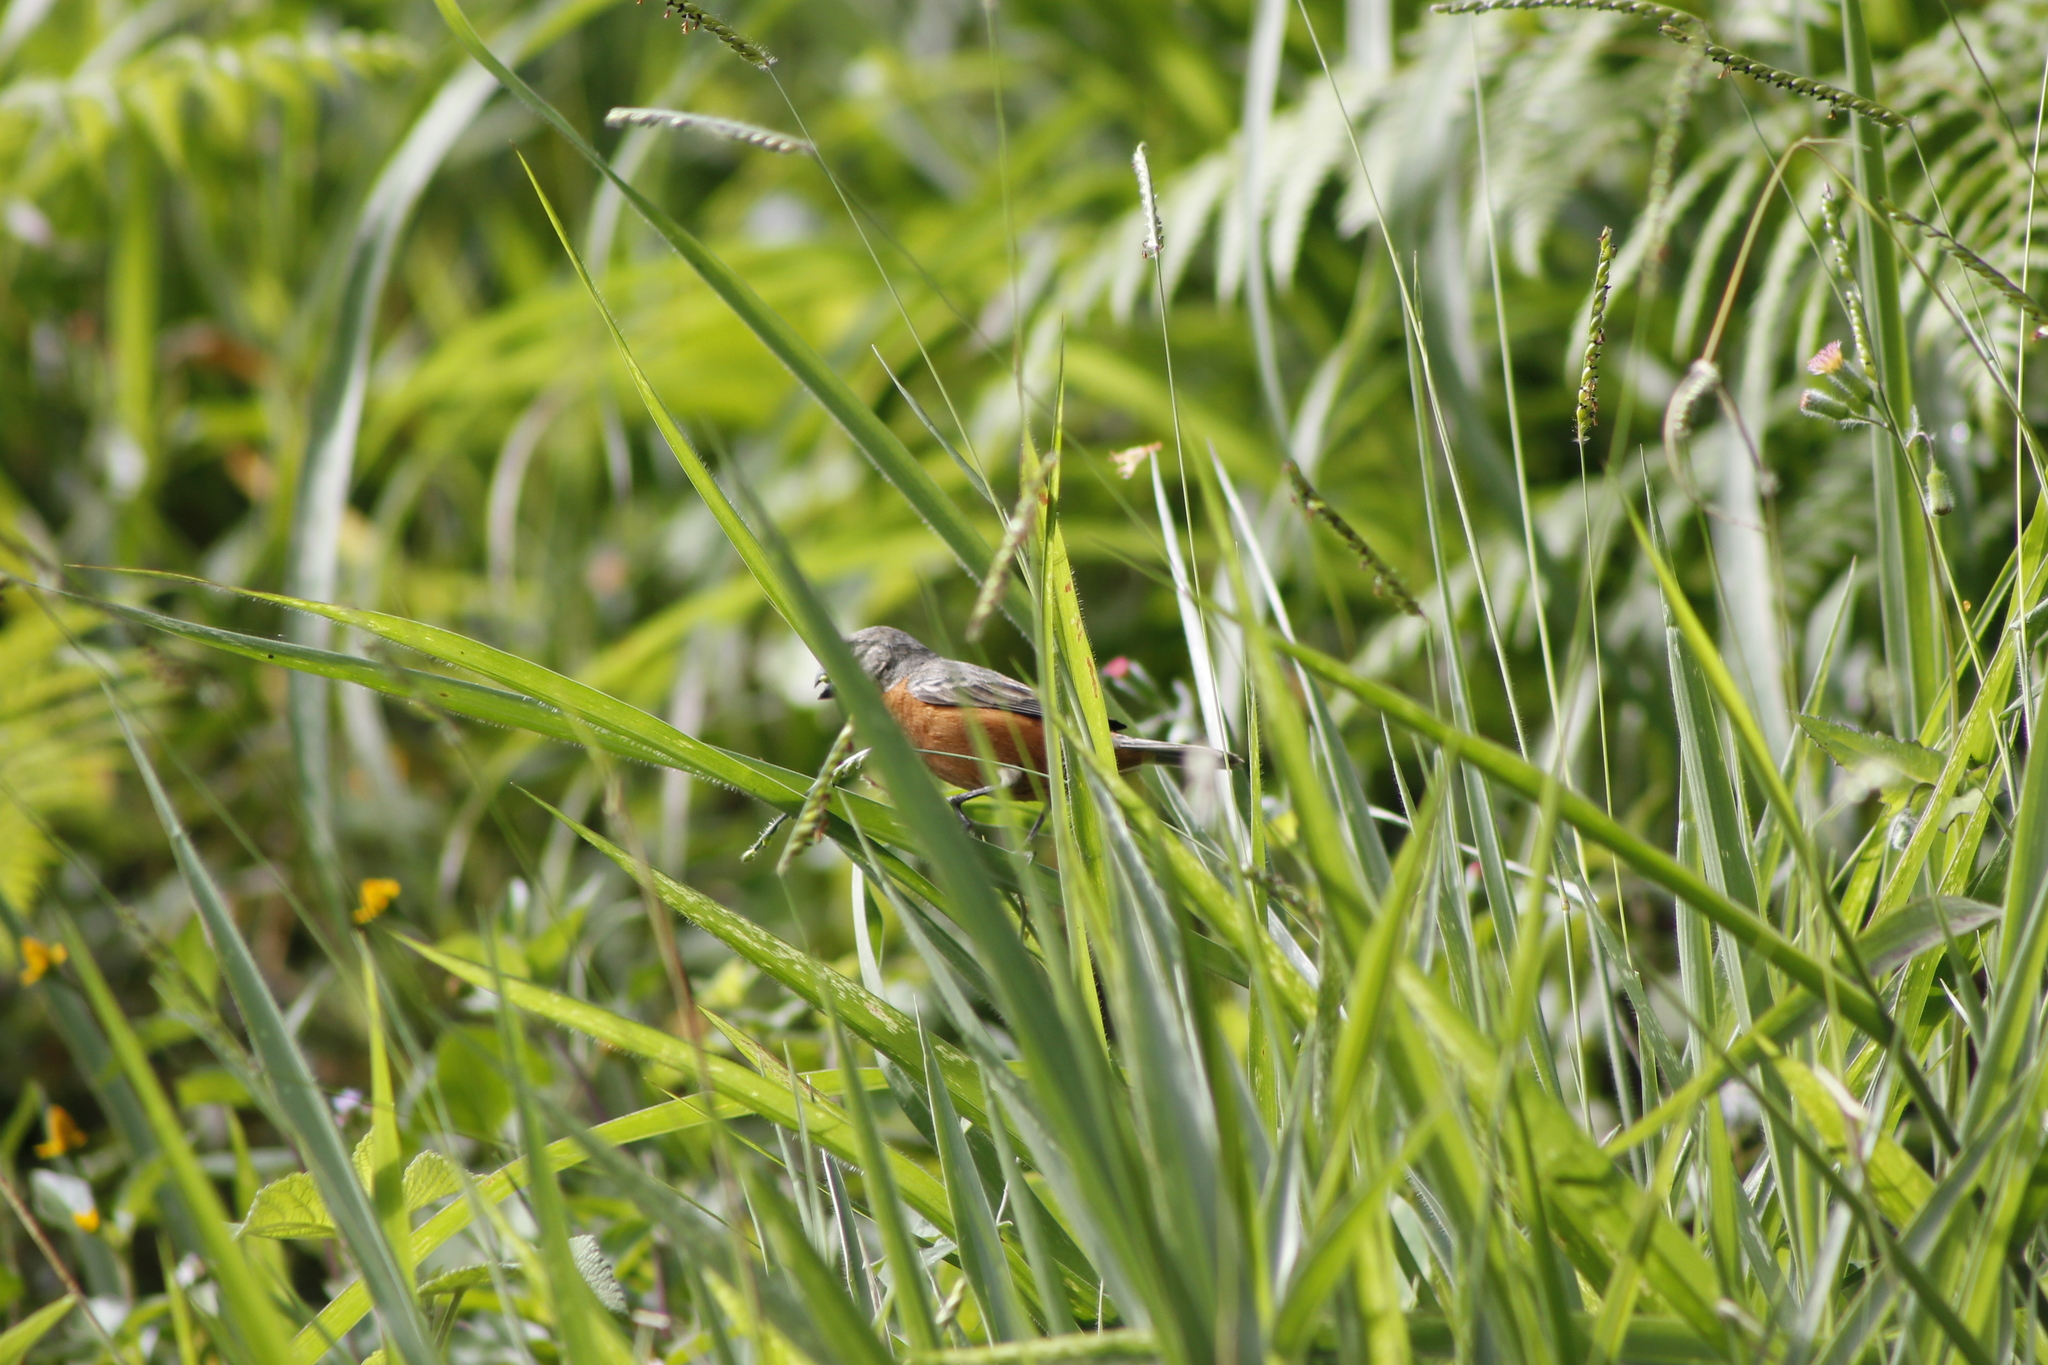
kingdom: Animalia
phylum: Chordata
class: Aves
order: Passeriformes
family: Thraupidae
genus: Sporophila
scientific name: Sporophila minuta
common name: Ruddy-breasted seedeater
